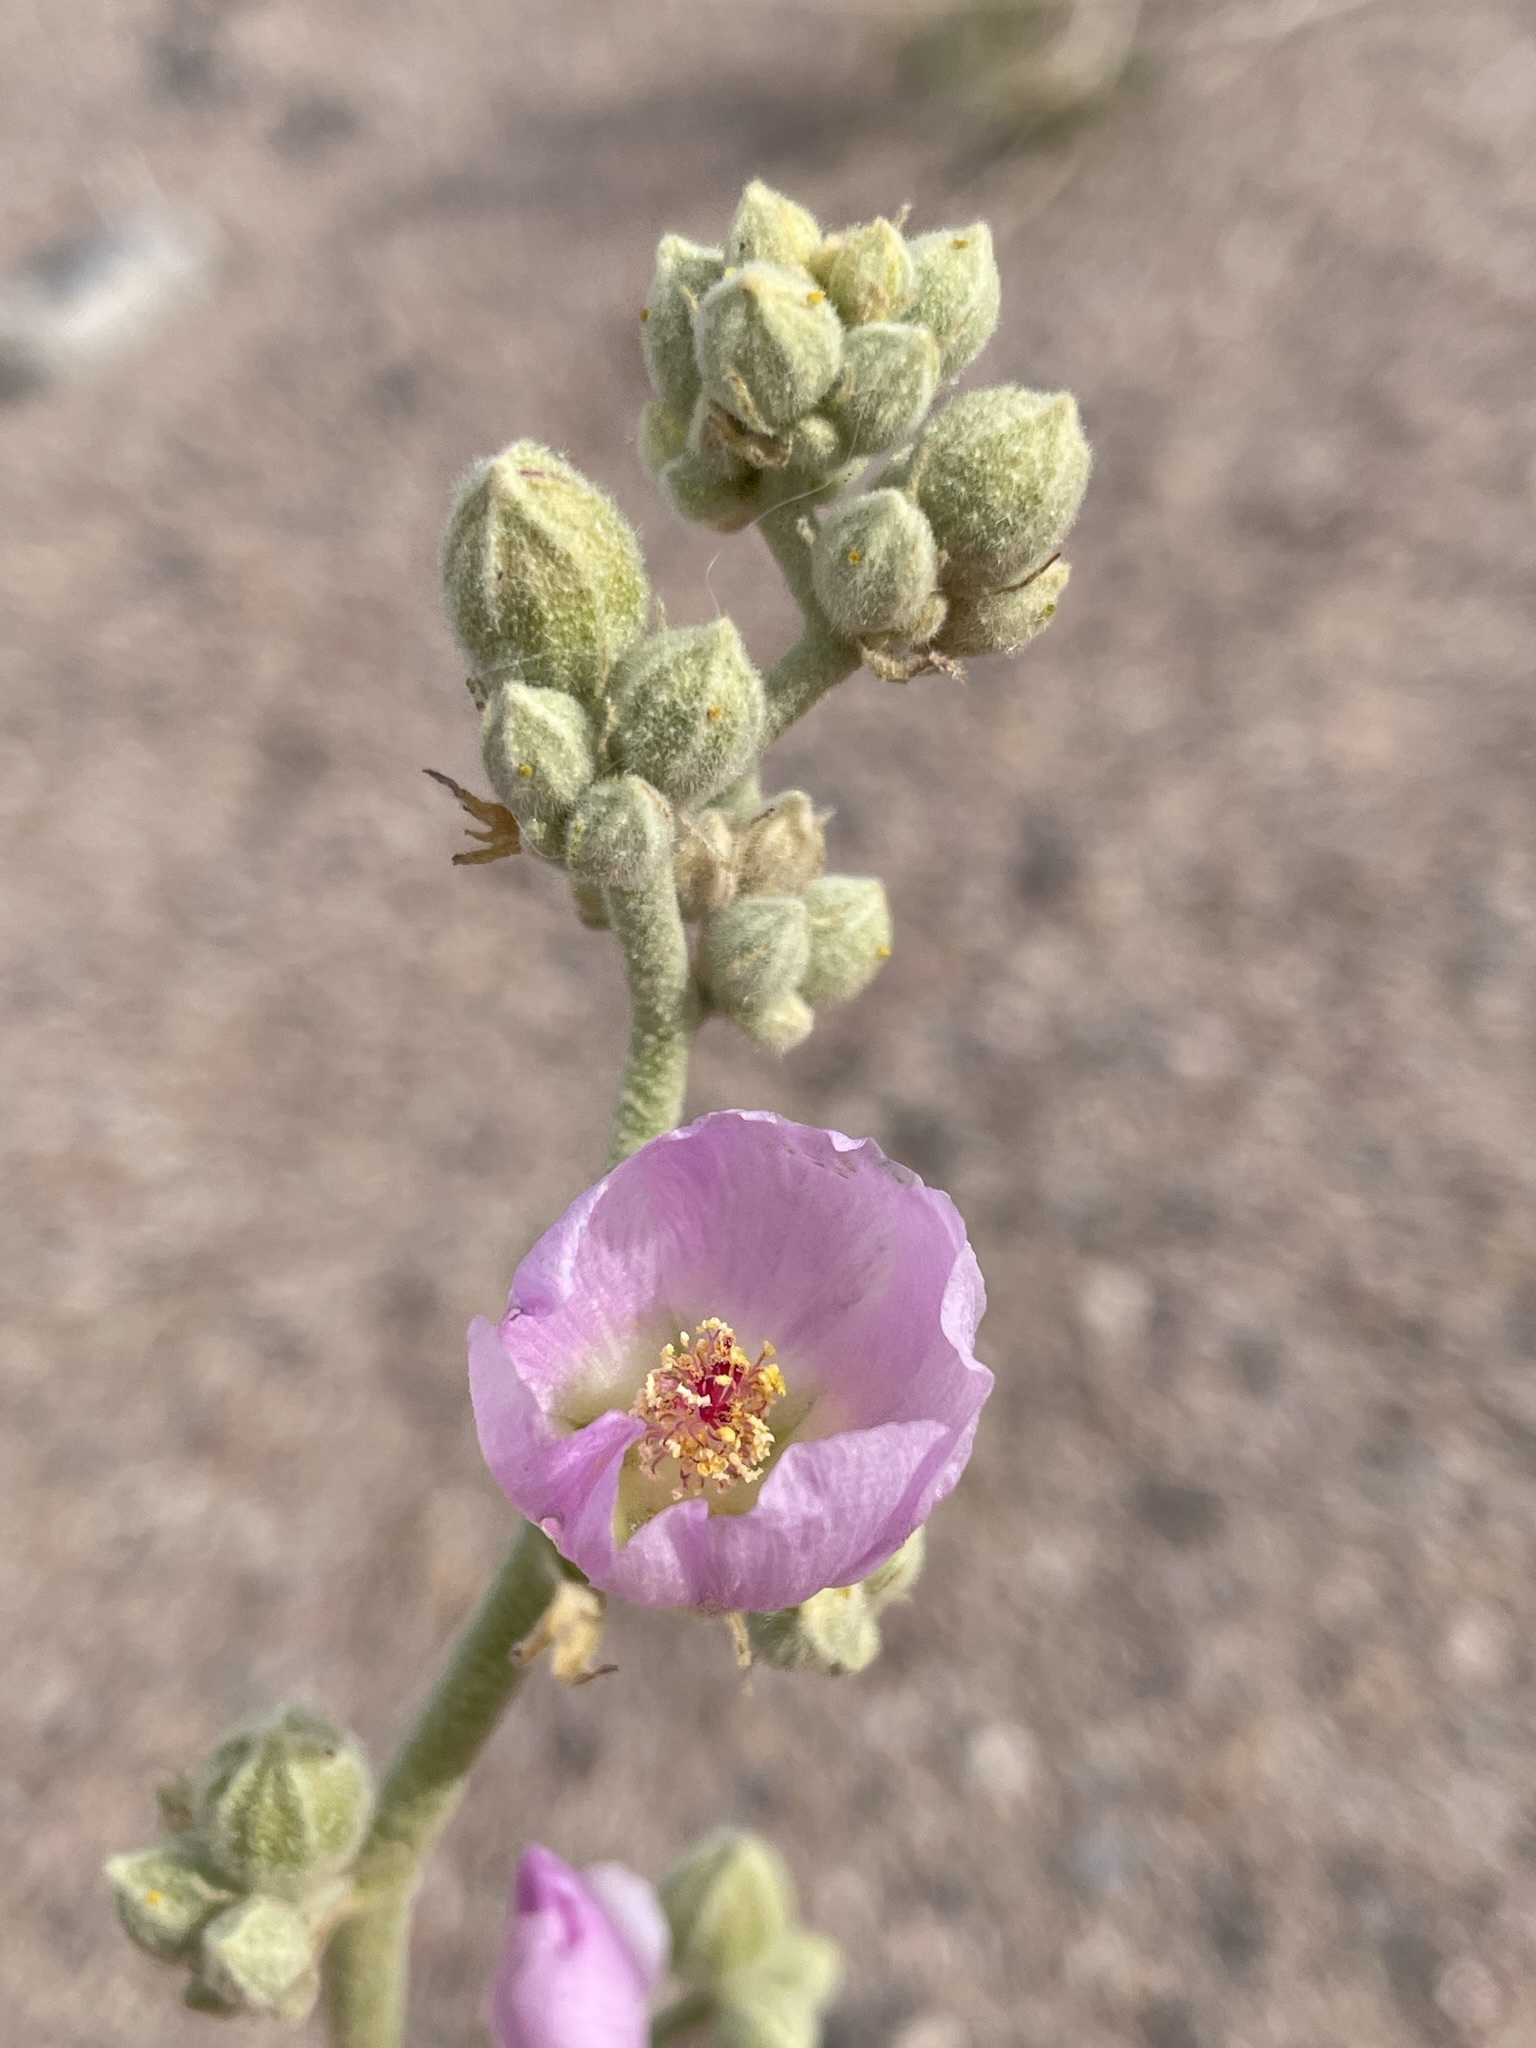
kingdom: Plantae
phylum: Tracheophyta
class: Magnoliopsida
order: Malvales
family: Malvaceae
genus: Sphaeralcea
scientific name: Sphaeralcea ambigua
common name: Apricot globe-mallow
